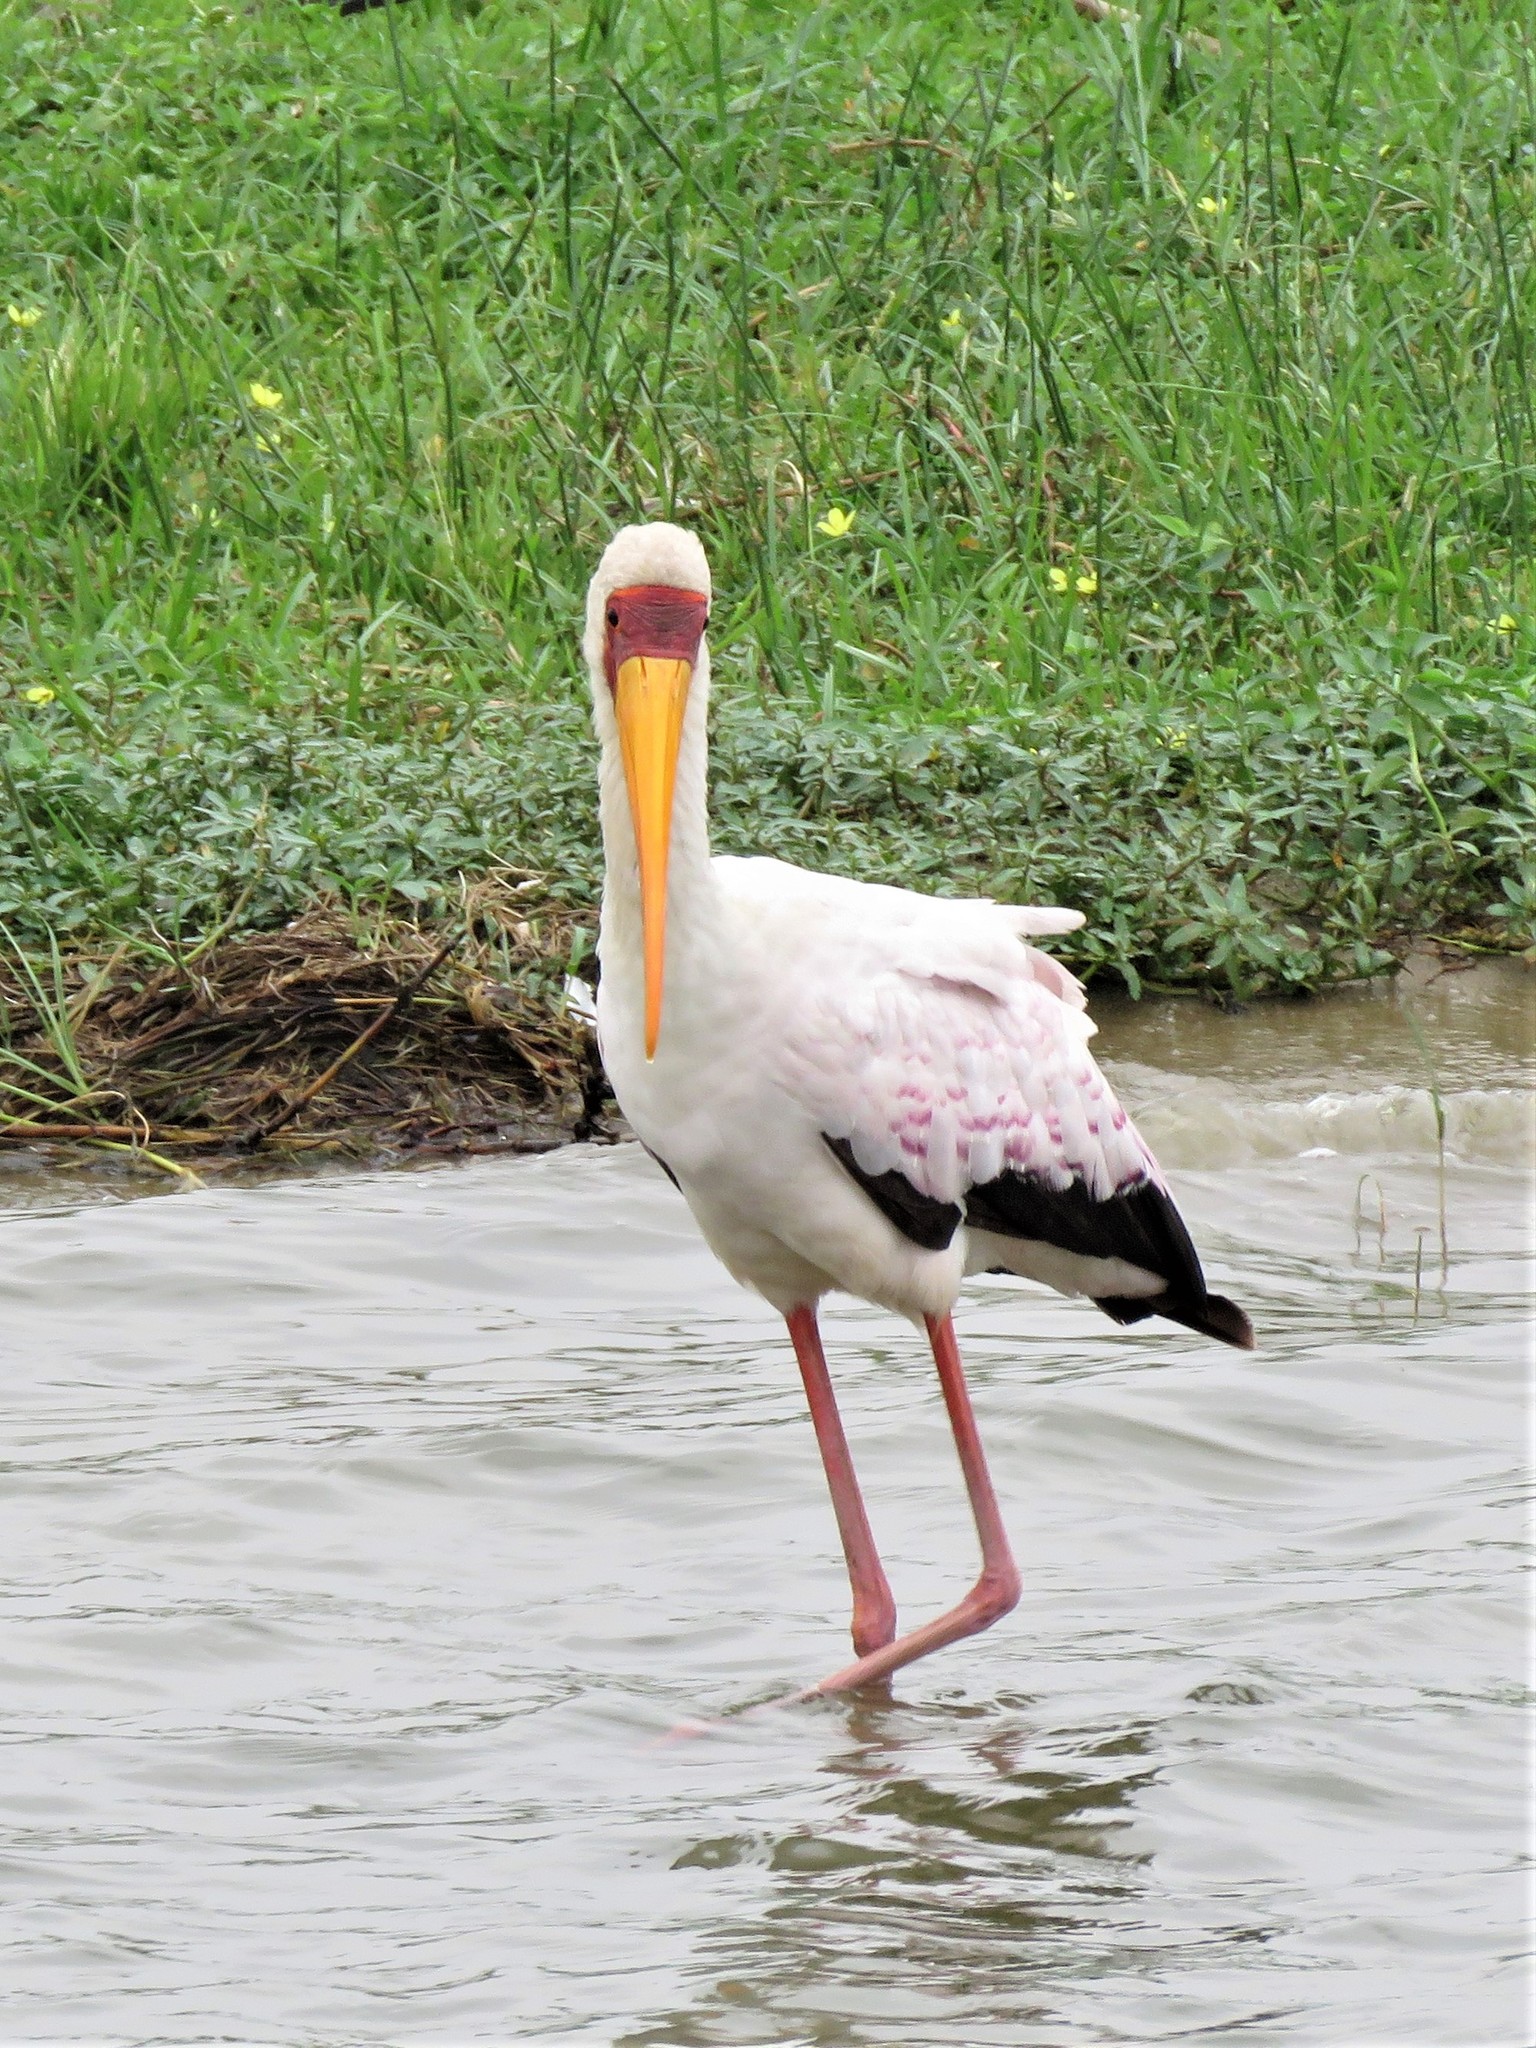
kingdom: Animalia
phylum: Chordata
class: Aves
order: Ciconiiformes
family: Ciconiidae
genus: Mycteria
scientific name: Mycteria ibis
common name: Yellow-billed stork
